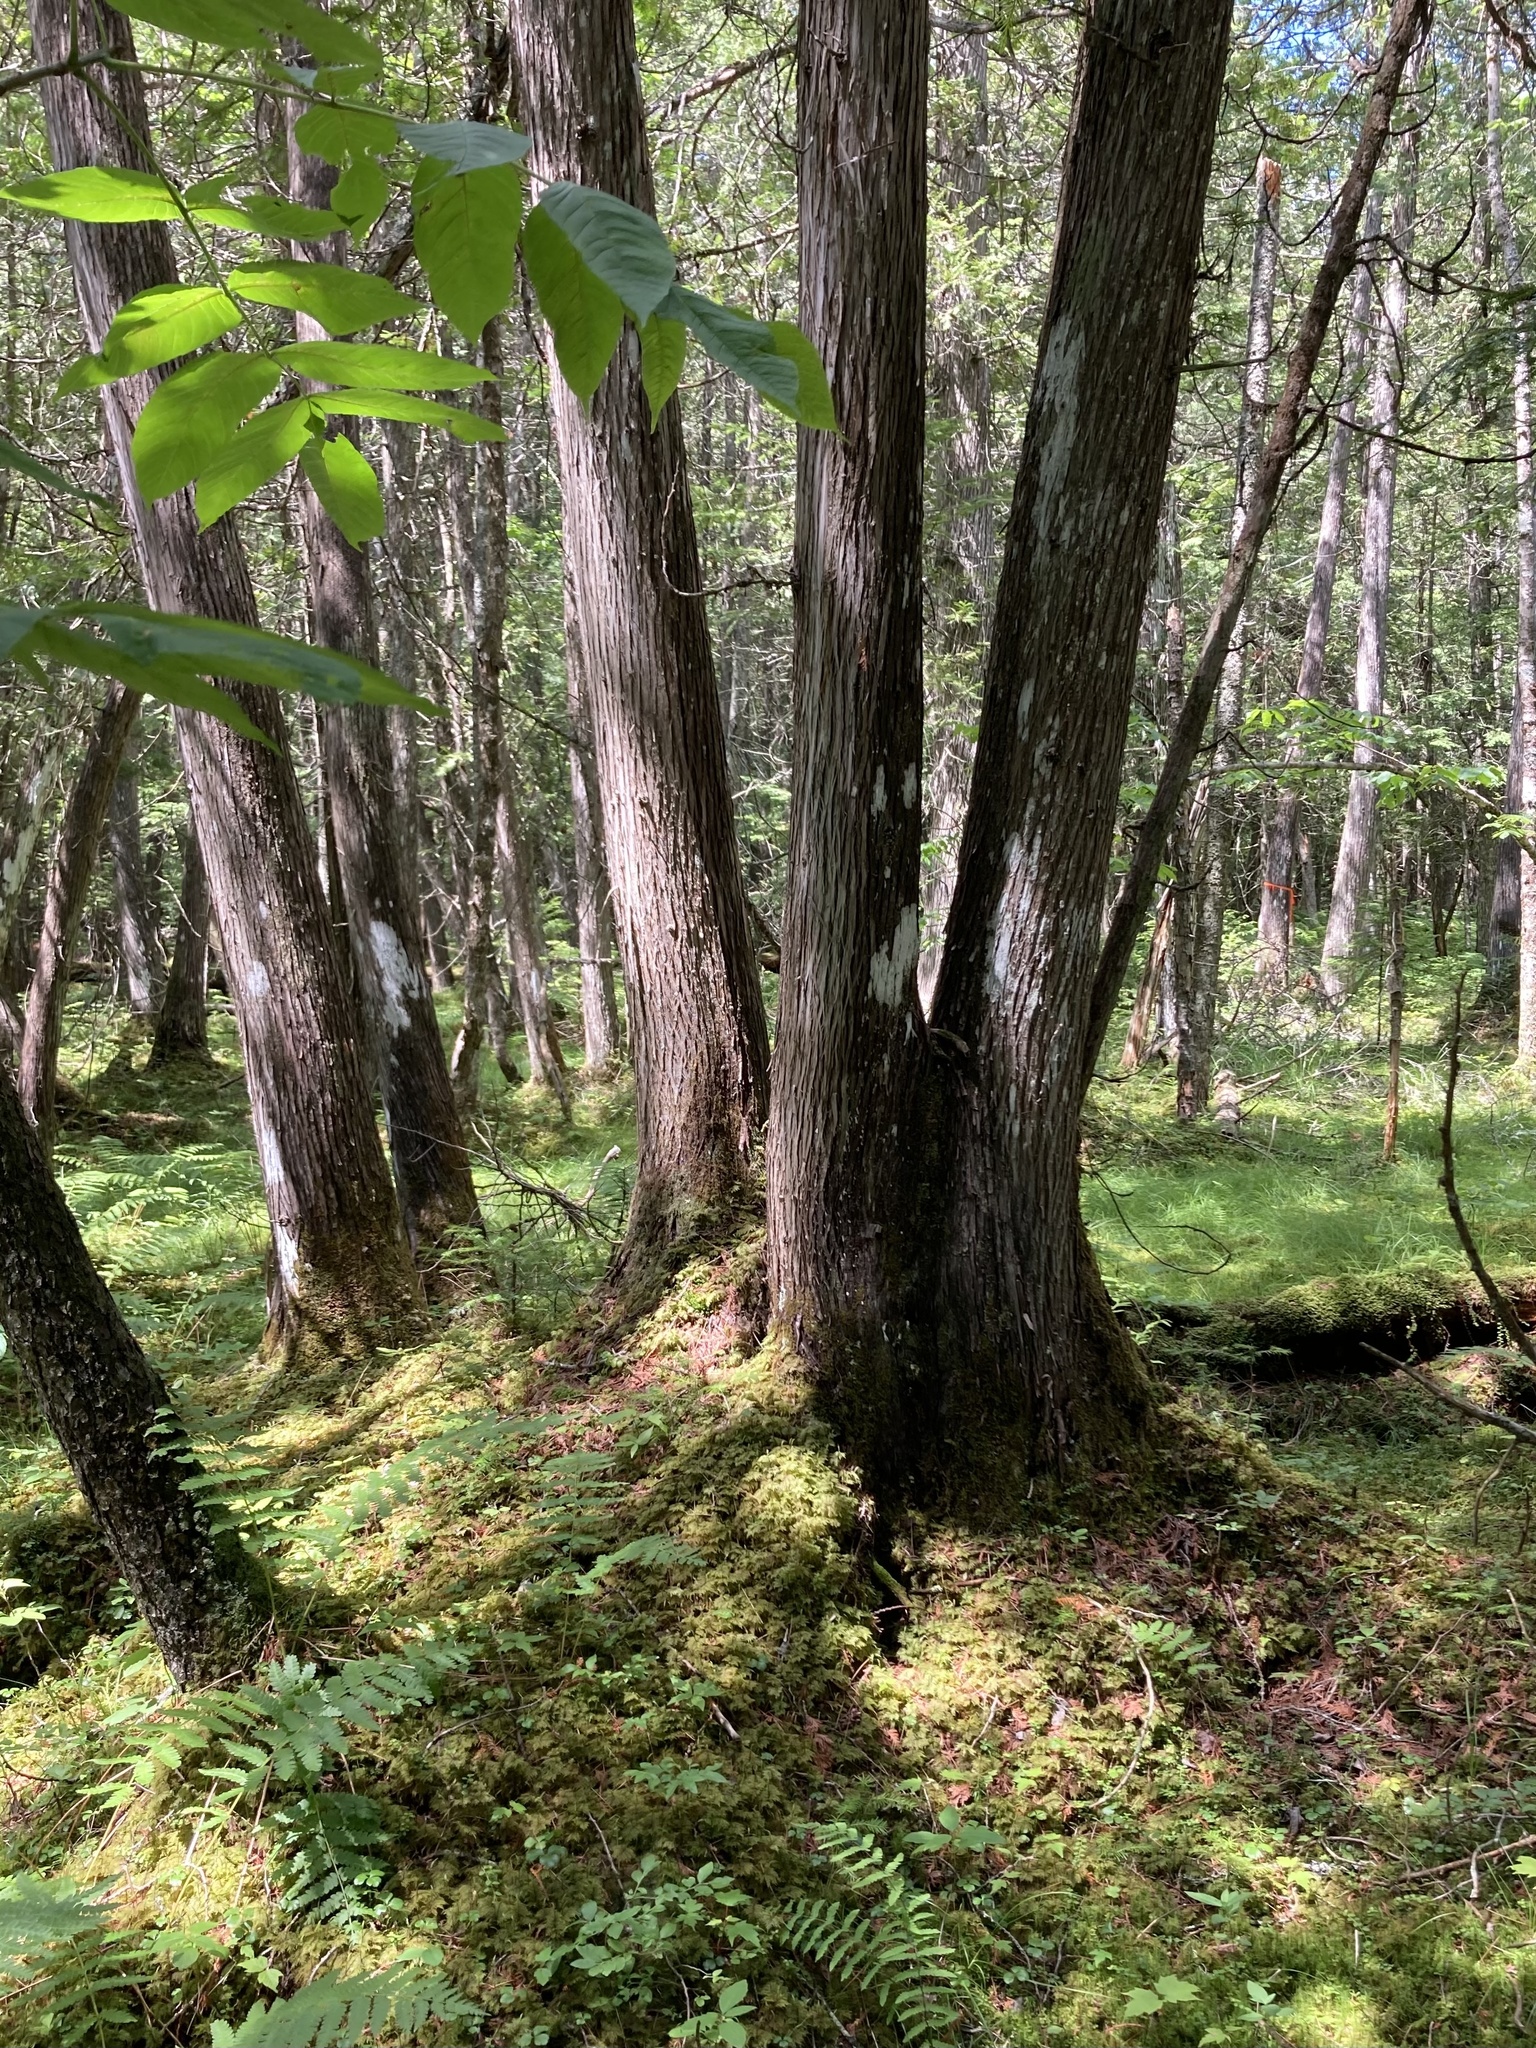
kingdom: Plantae
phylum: Tracheophyta
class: Pinopsida
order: Pinales
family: Cupressaceae
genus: Thuja
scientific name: Thuja occidentalis
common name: Northern white-cedar
